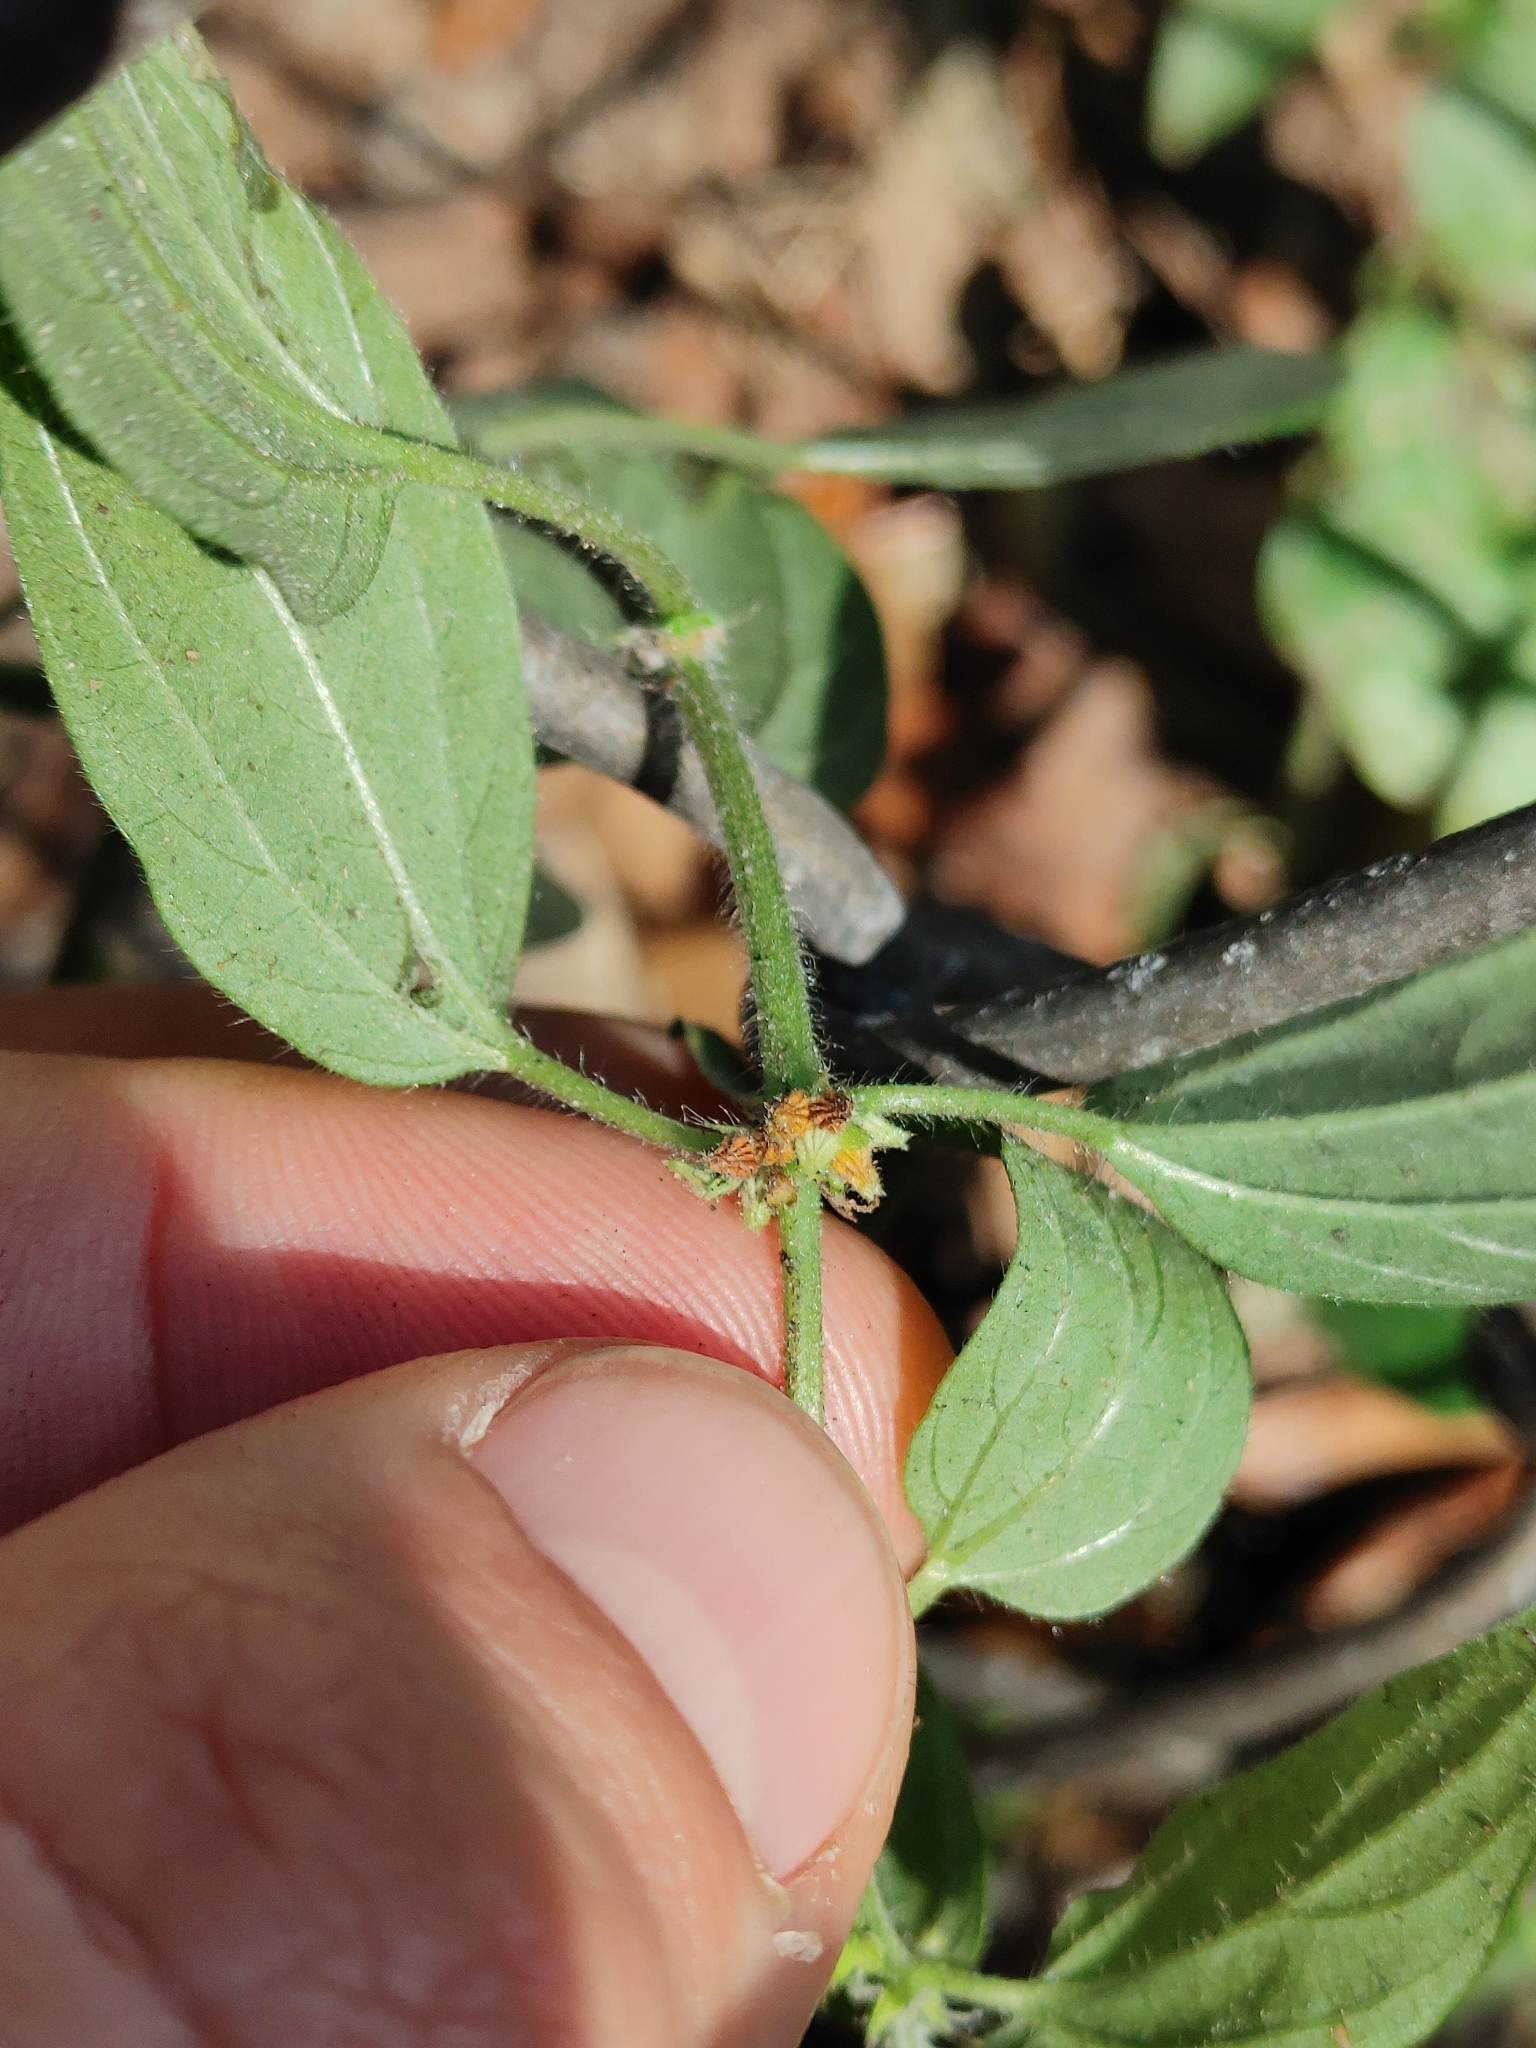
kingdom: Plantae
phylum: Tracheophyta
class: Magnoliopsida
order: Rosales
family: Urticaceae
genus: Pouzolzia
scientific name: Pouzolzia zeylanica
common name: Graceful pouzolzsbush
